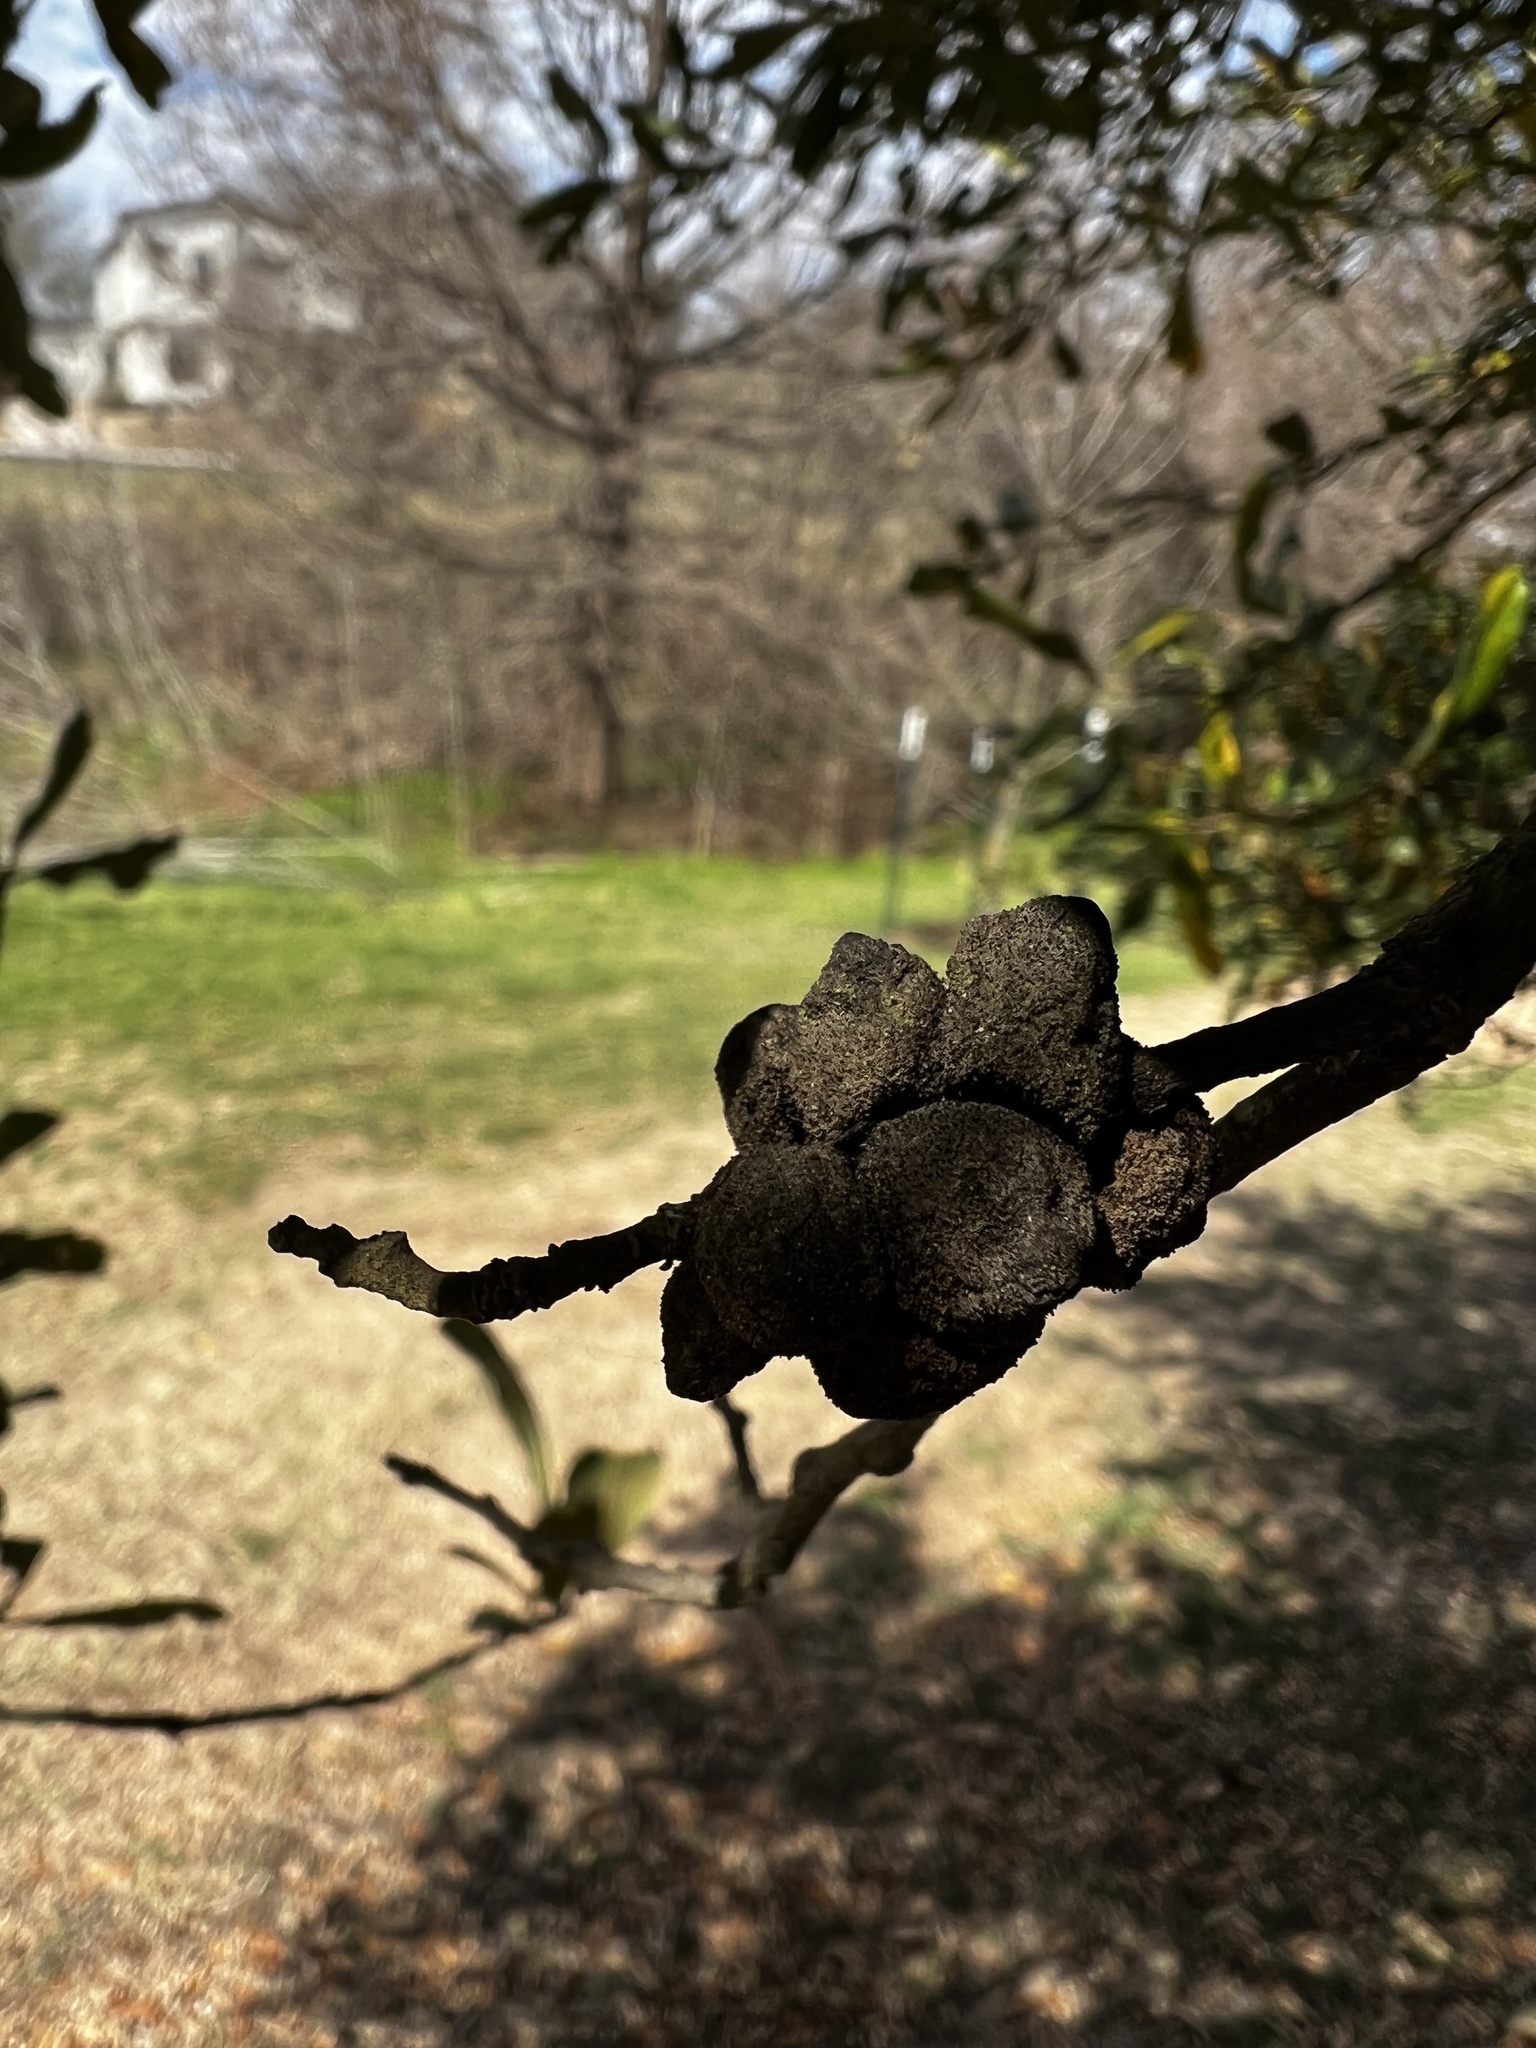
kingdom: Animalia
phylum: Arthropoda
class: Insecta
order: Hymenoptera
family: Cynipidae
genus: Disholcaspis
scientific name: Disholcaspis
